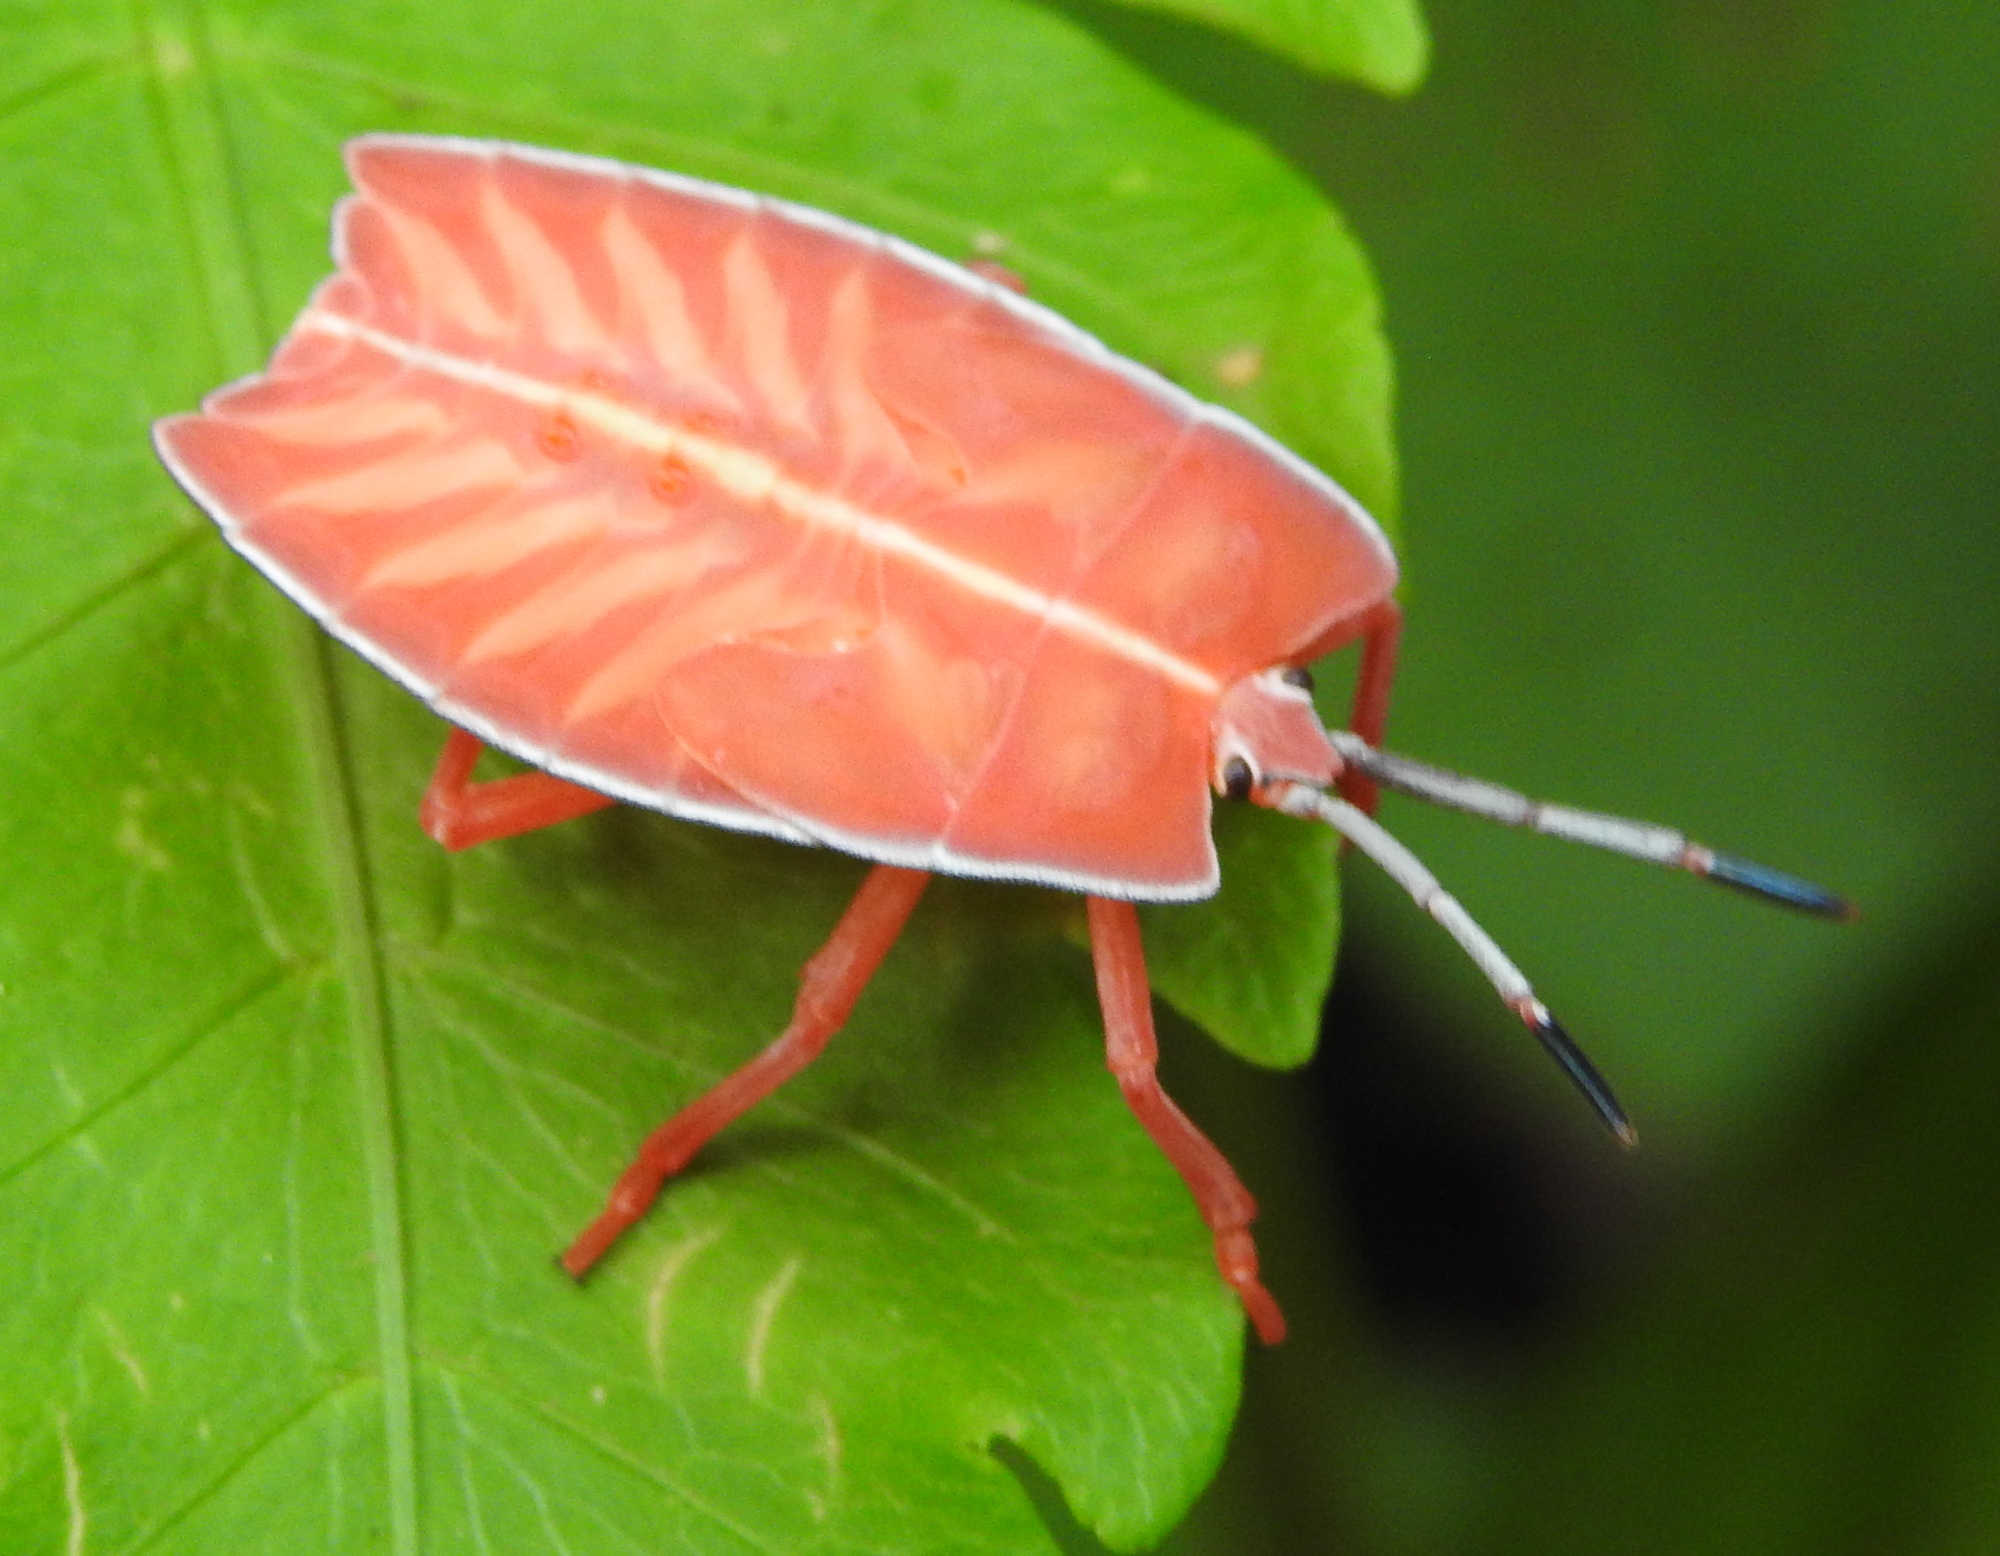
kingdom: Animalia
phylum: Arthropoda
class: Insecta
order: Hemiptera
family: Tessaratomidae
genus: Pycanum
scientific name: Pycanum alternatum
